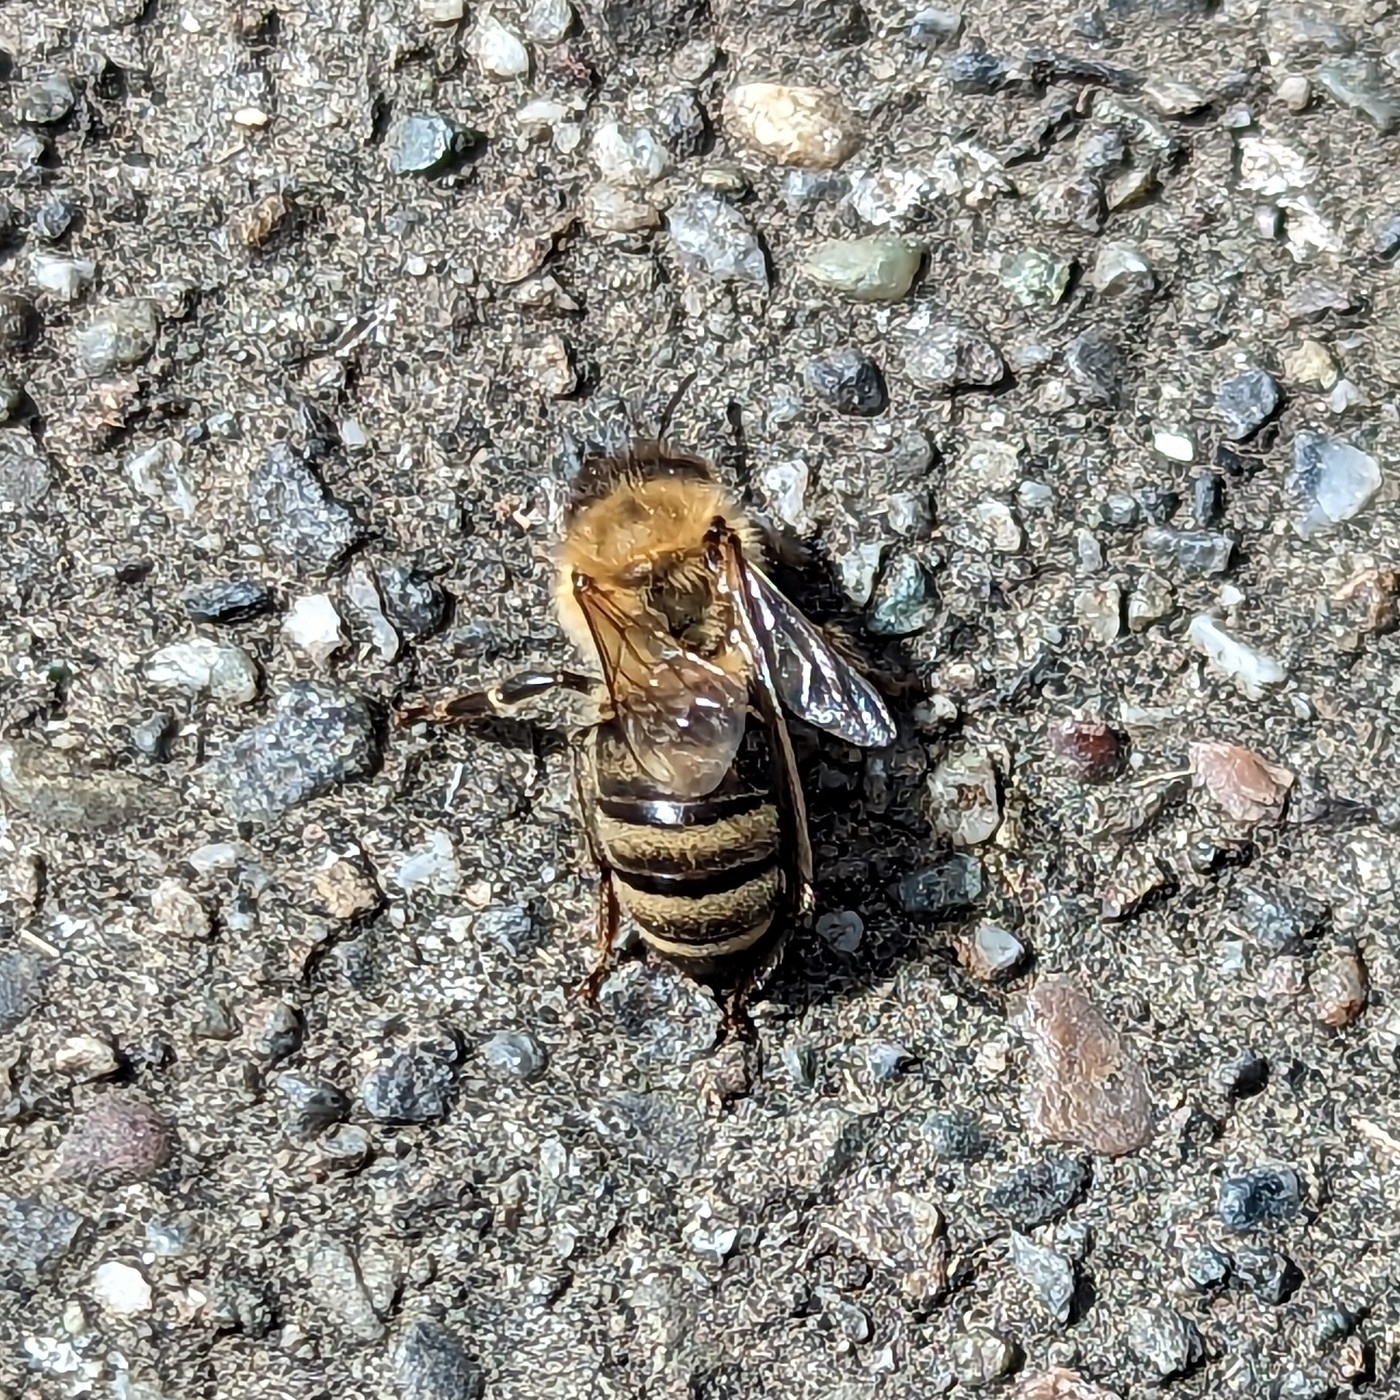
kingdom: Animalia
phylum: Arthropoda
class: Insecta
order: Hymenoptera
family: Apidae
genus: Apis
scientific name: Apis mellifera
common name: Honey bee
